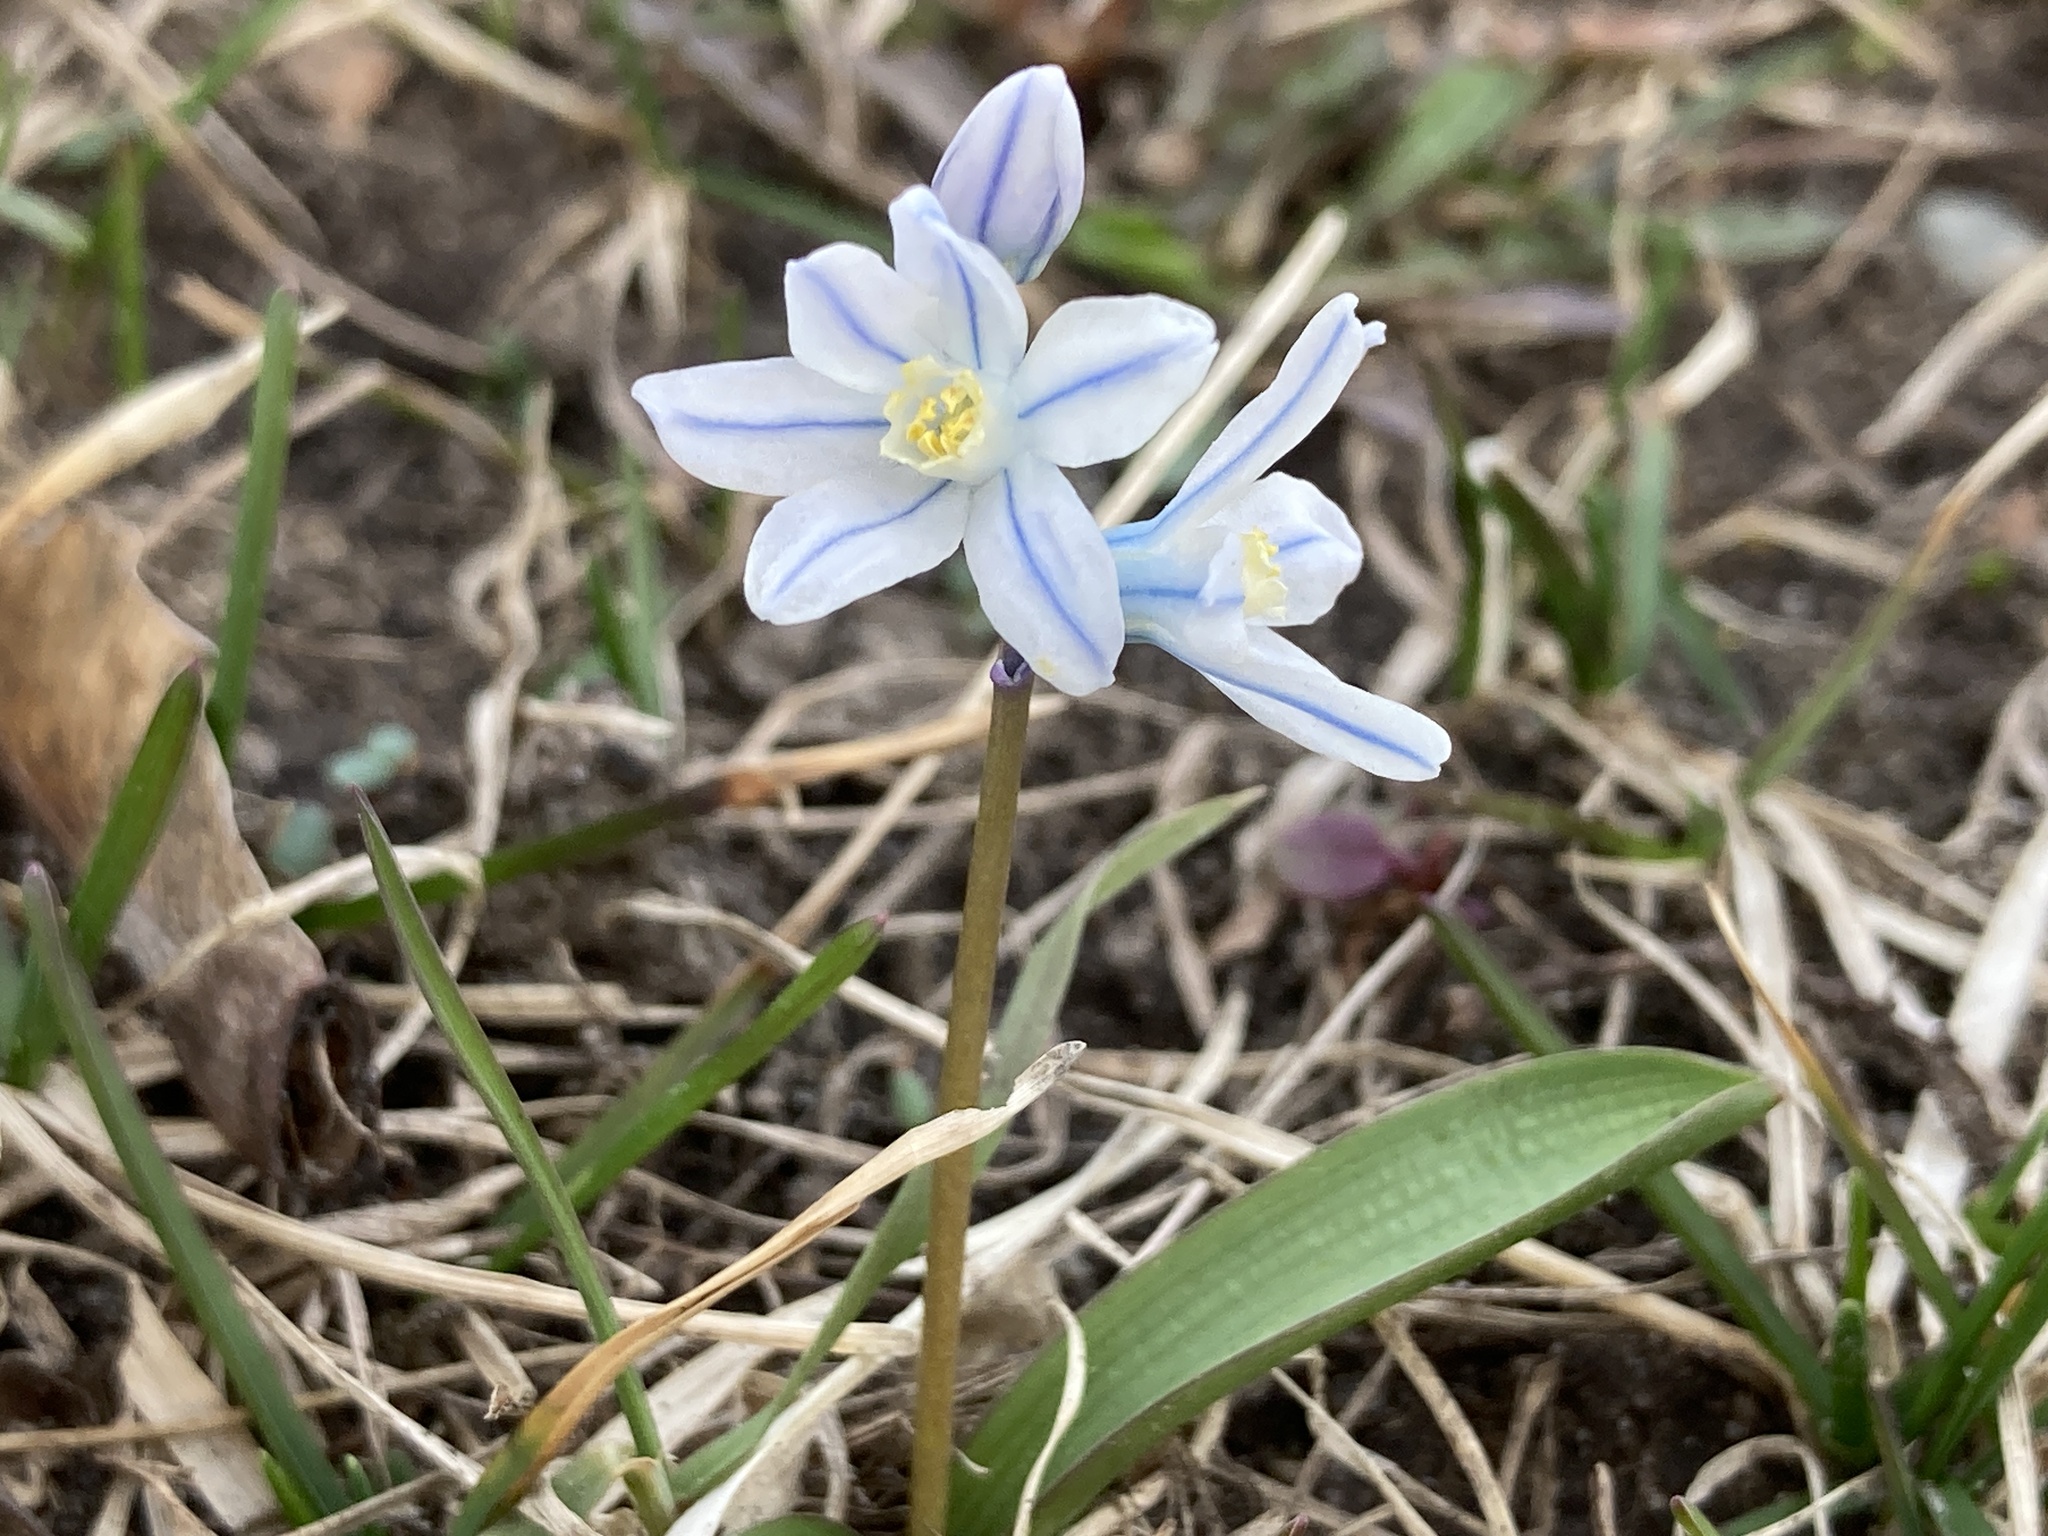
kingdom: Plantae
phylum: Tracheophyta
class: Liliopsida
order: Asparagales
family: Asparagaceae
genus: Puschkinia
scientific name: Puschkinia scilloides
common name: Striped squill
